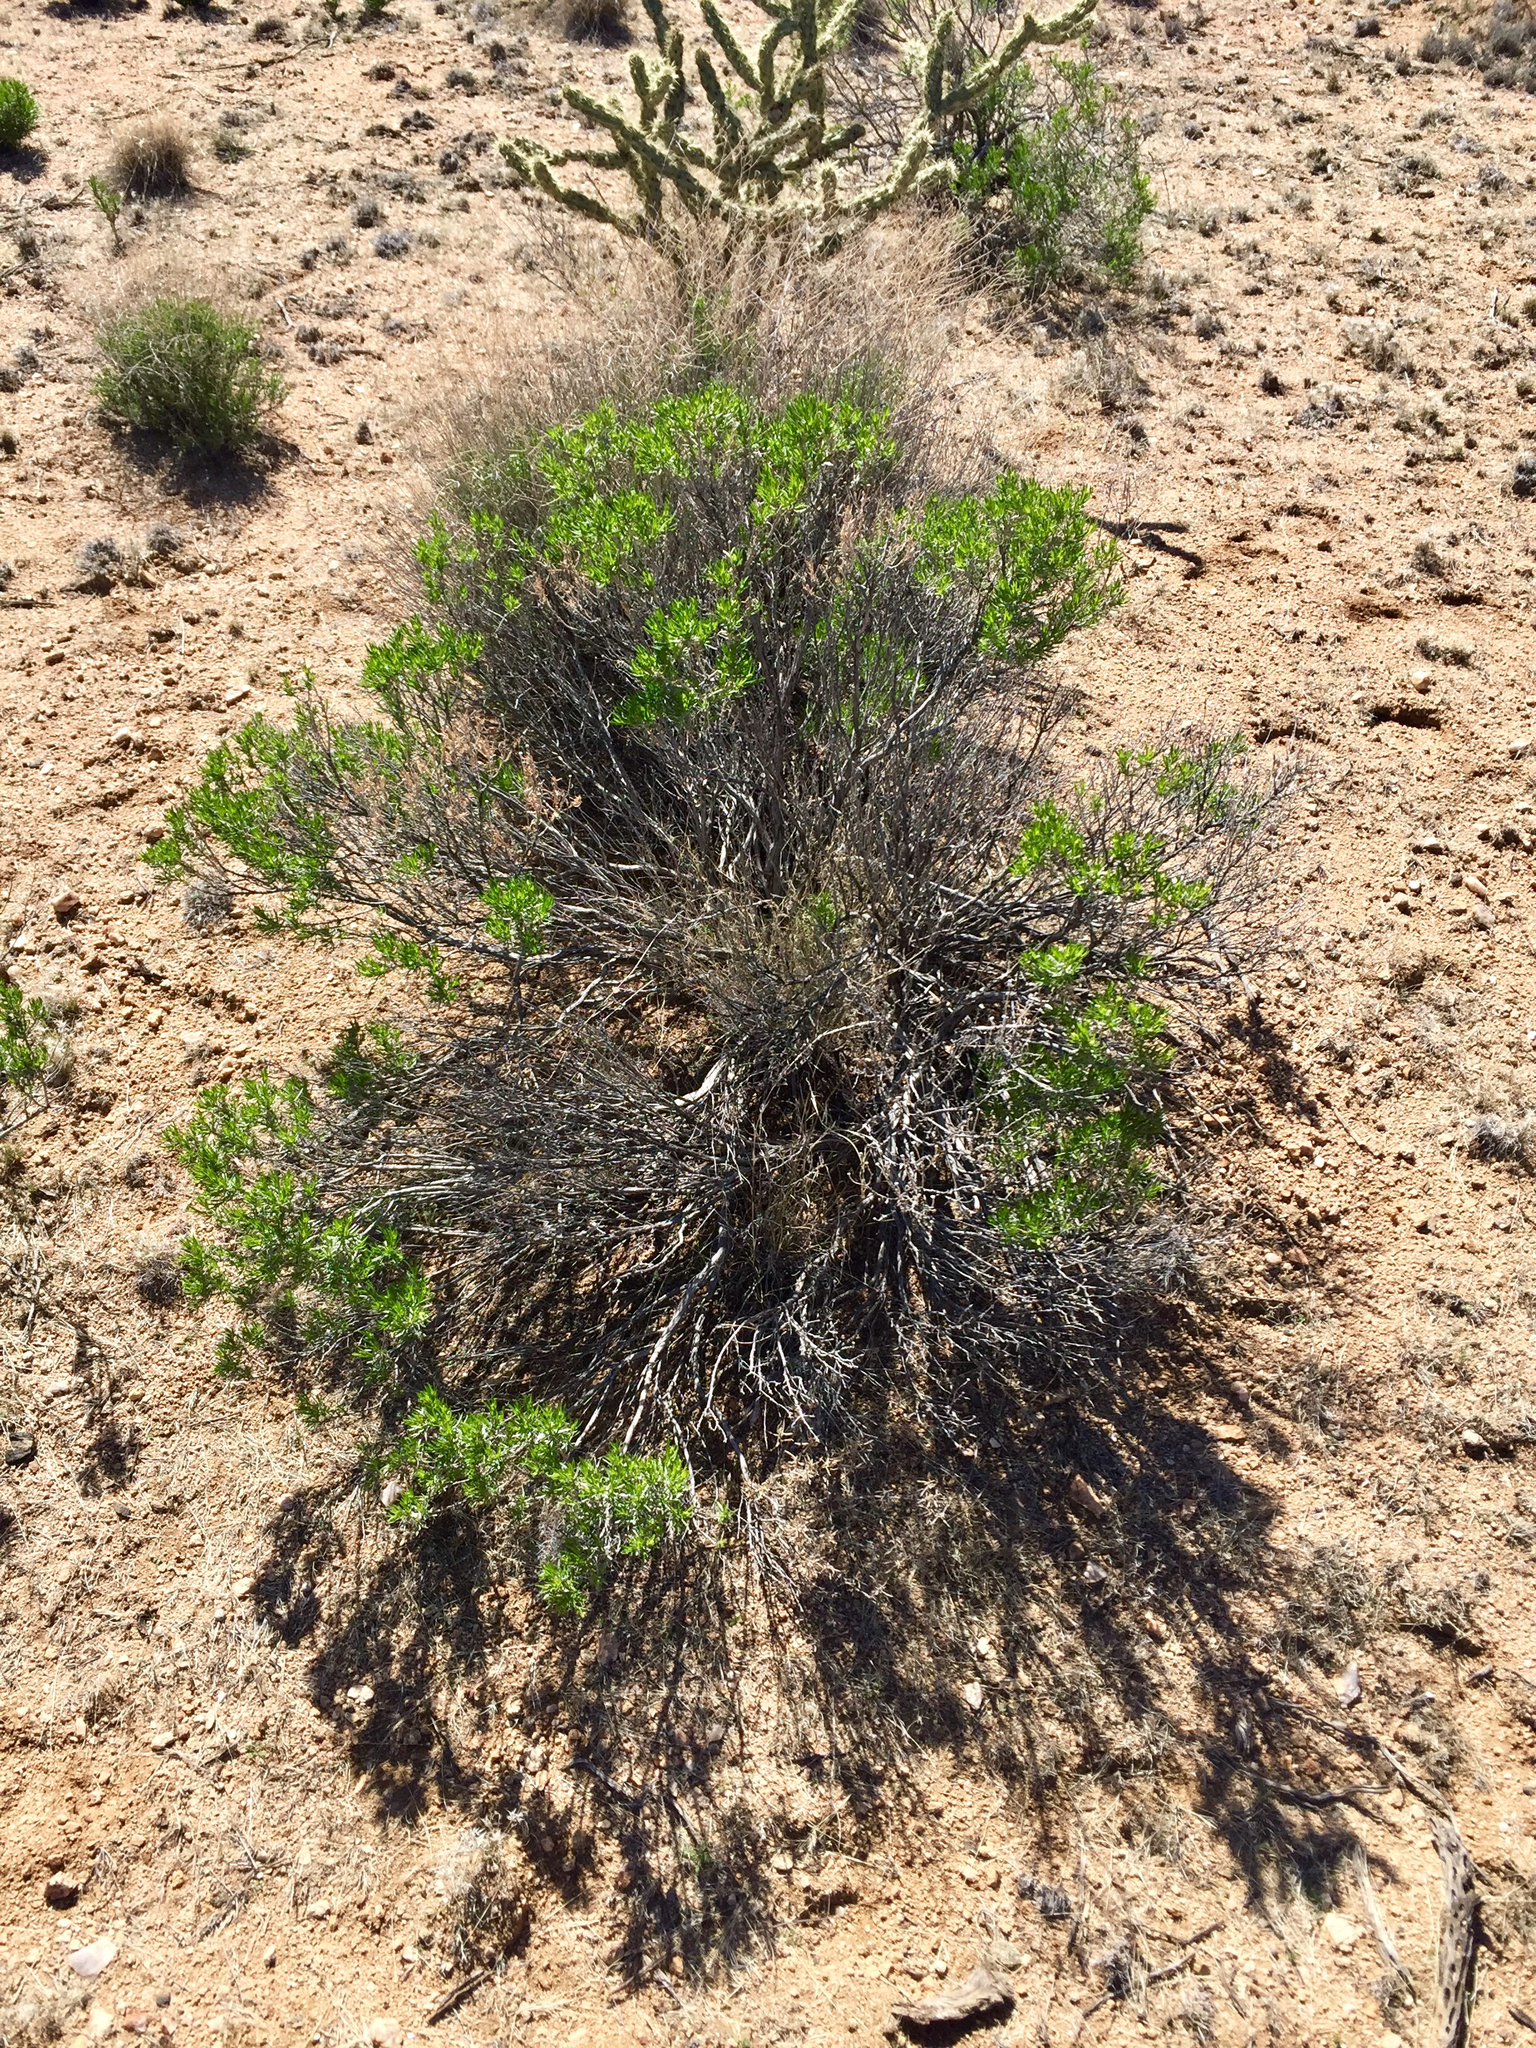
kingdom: Plantae
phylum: Tracheophyta
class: Magnoliopsida
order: Asterales
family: Asteraceae
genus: Ericameria
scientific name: Ericameria linearifolia
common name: Interior goldenbush
